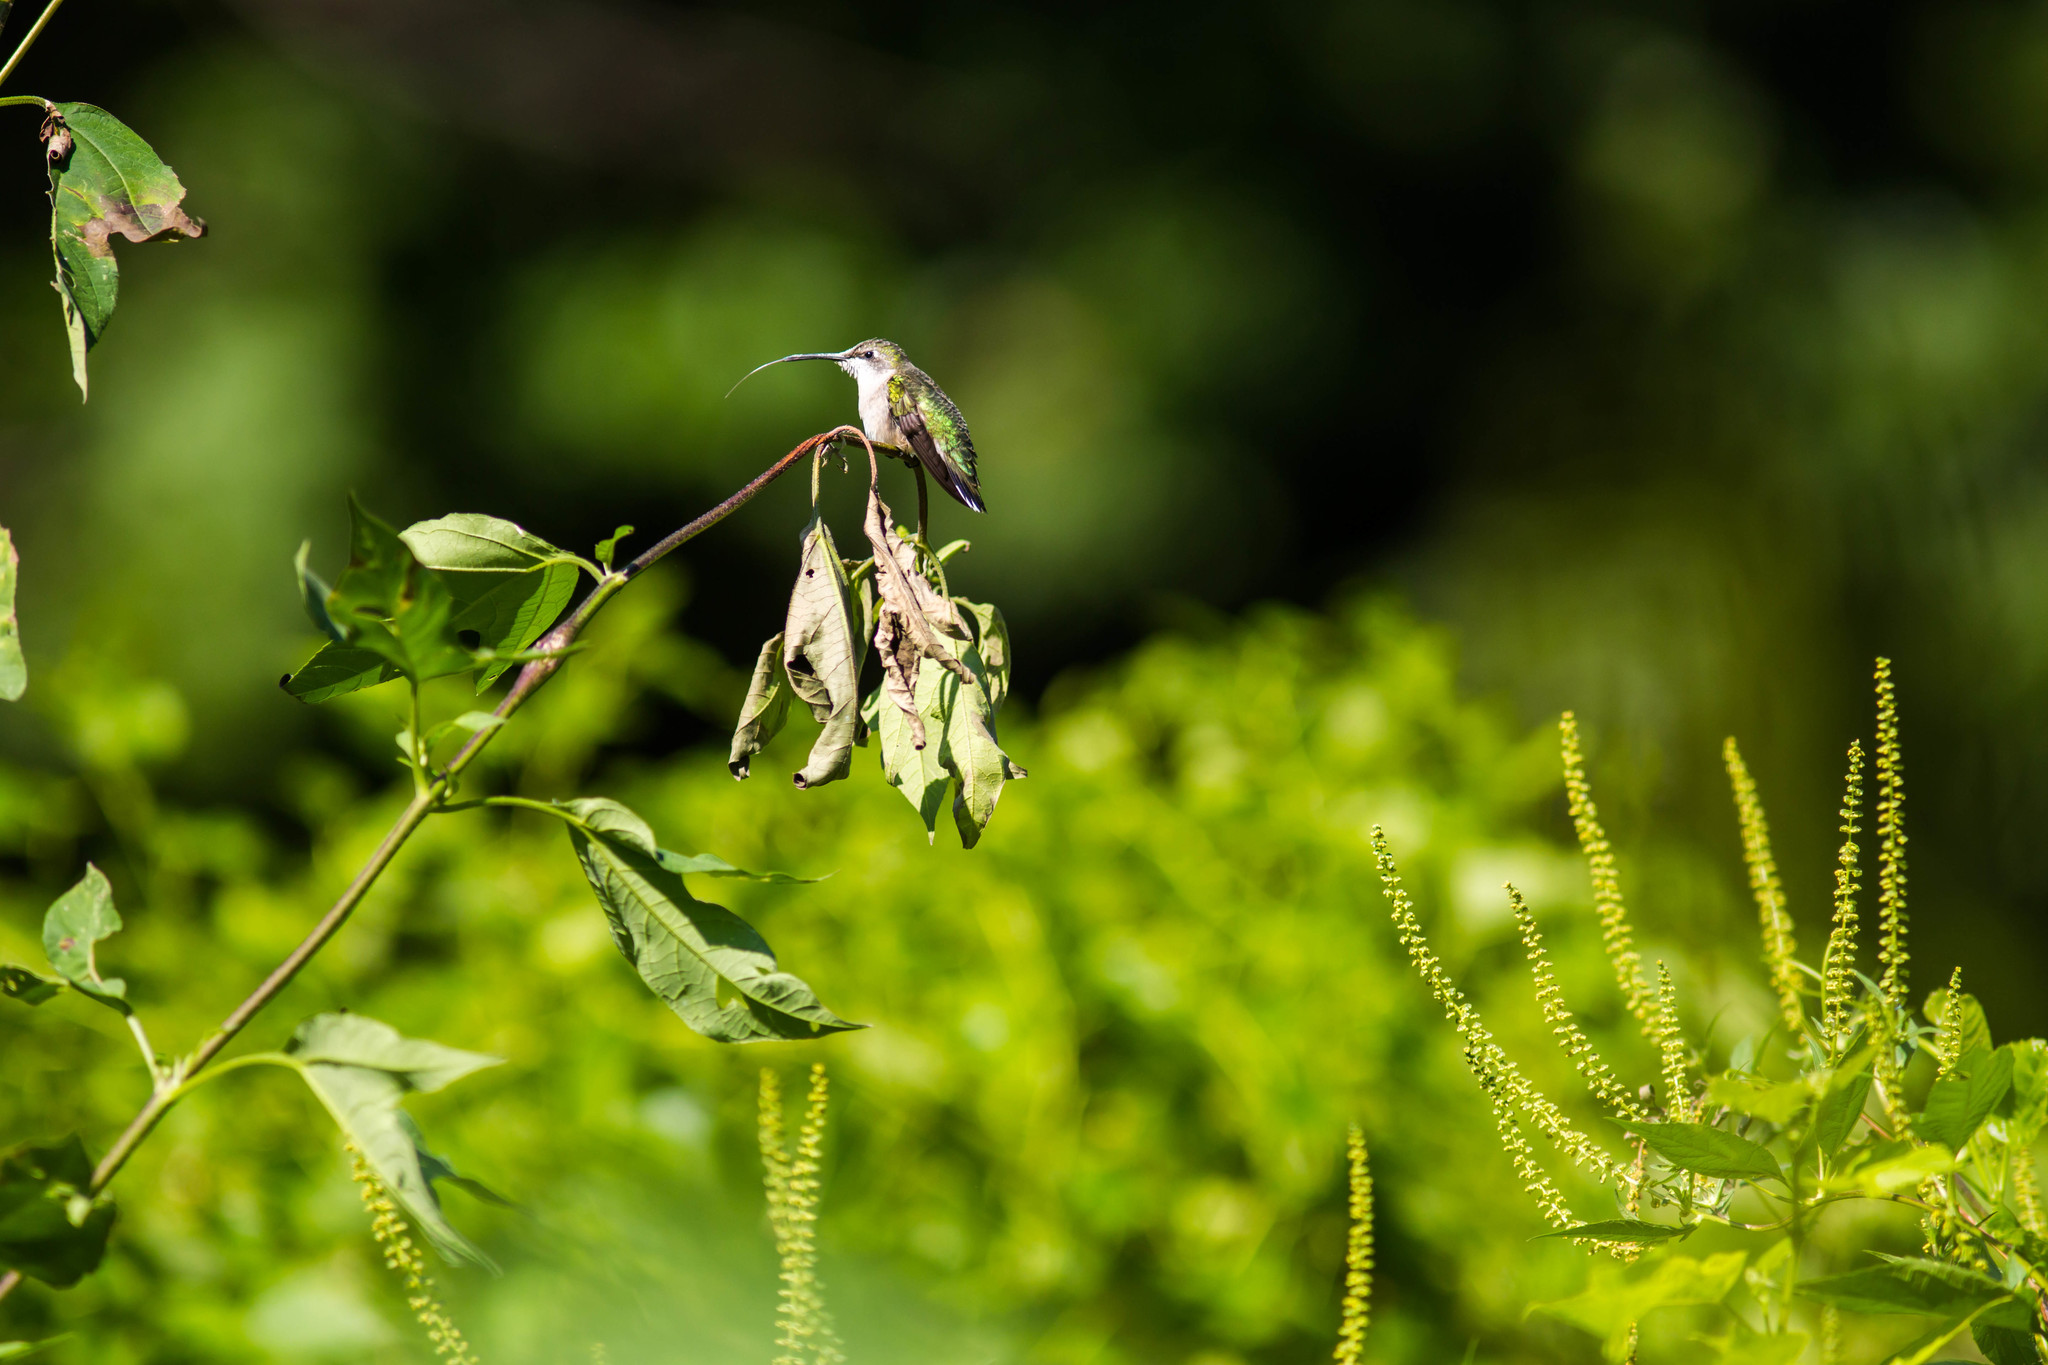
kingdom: Animalia
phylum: Chordata
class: Aves
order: Apodiformes
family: Trochilidae
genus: Archilochus
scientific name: Archilochus colubris
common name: Ruby-throated hummingbird
